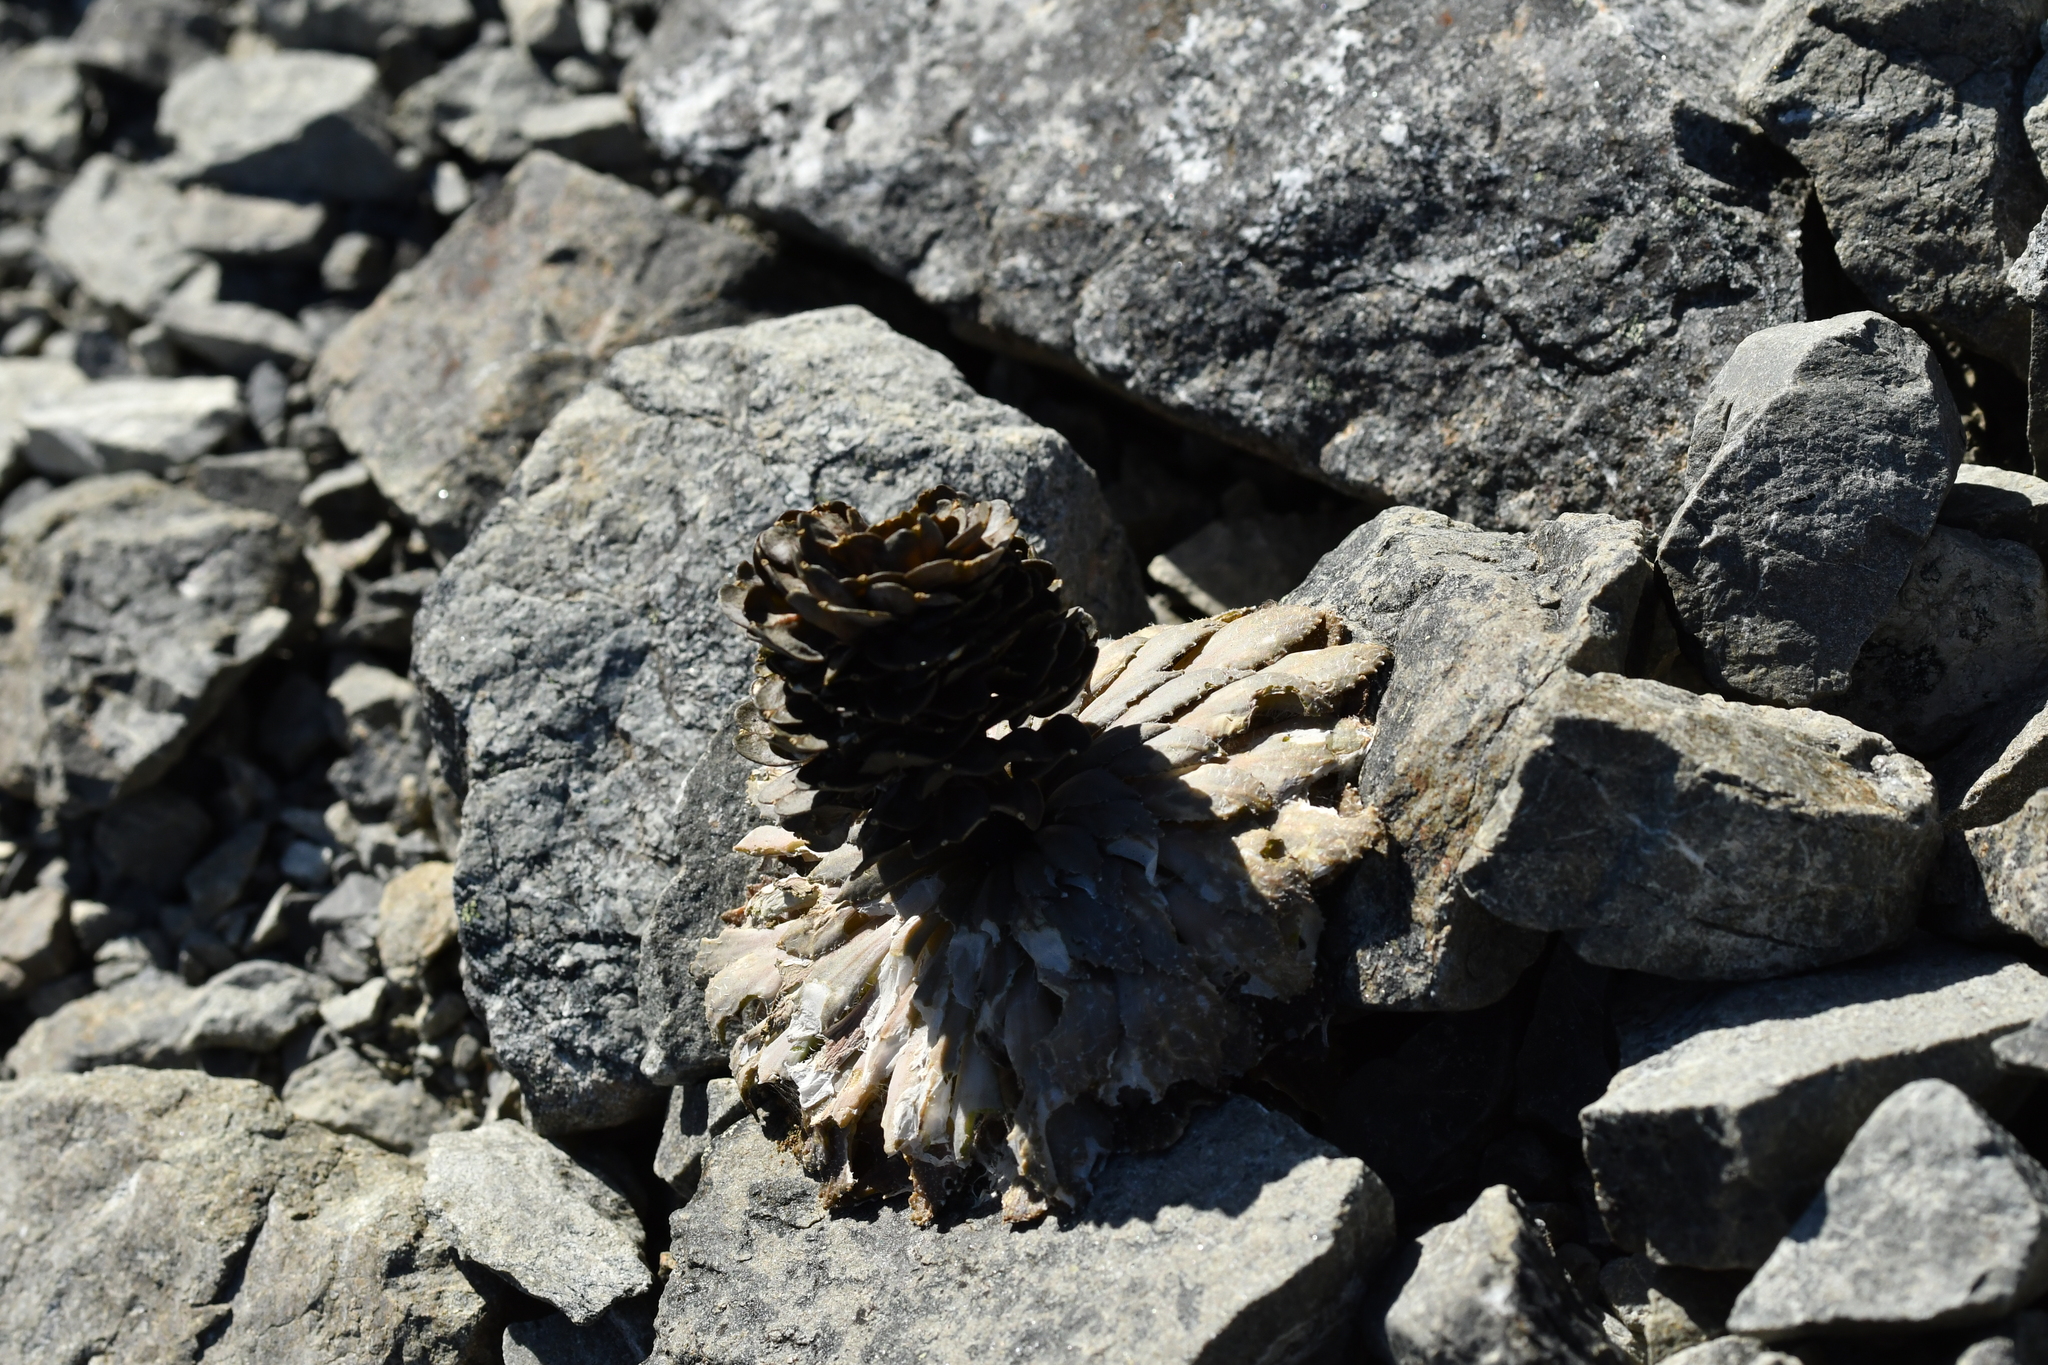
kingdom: Plantae
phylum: Tracheophyta
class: Magnoliopsida
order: Brassicales
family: Brassicaceae
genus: Notothlaspi
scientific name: Notothlaspi rosulatum
